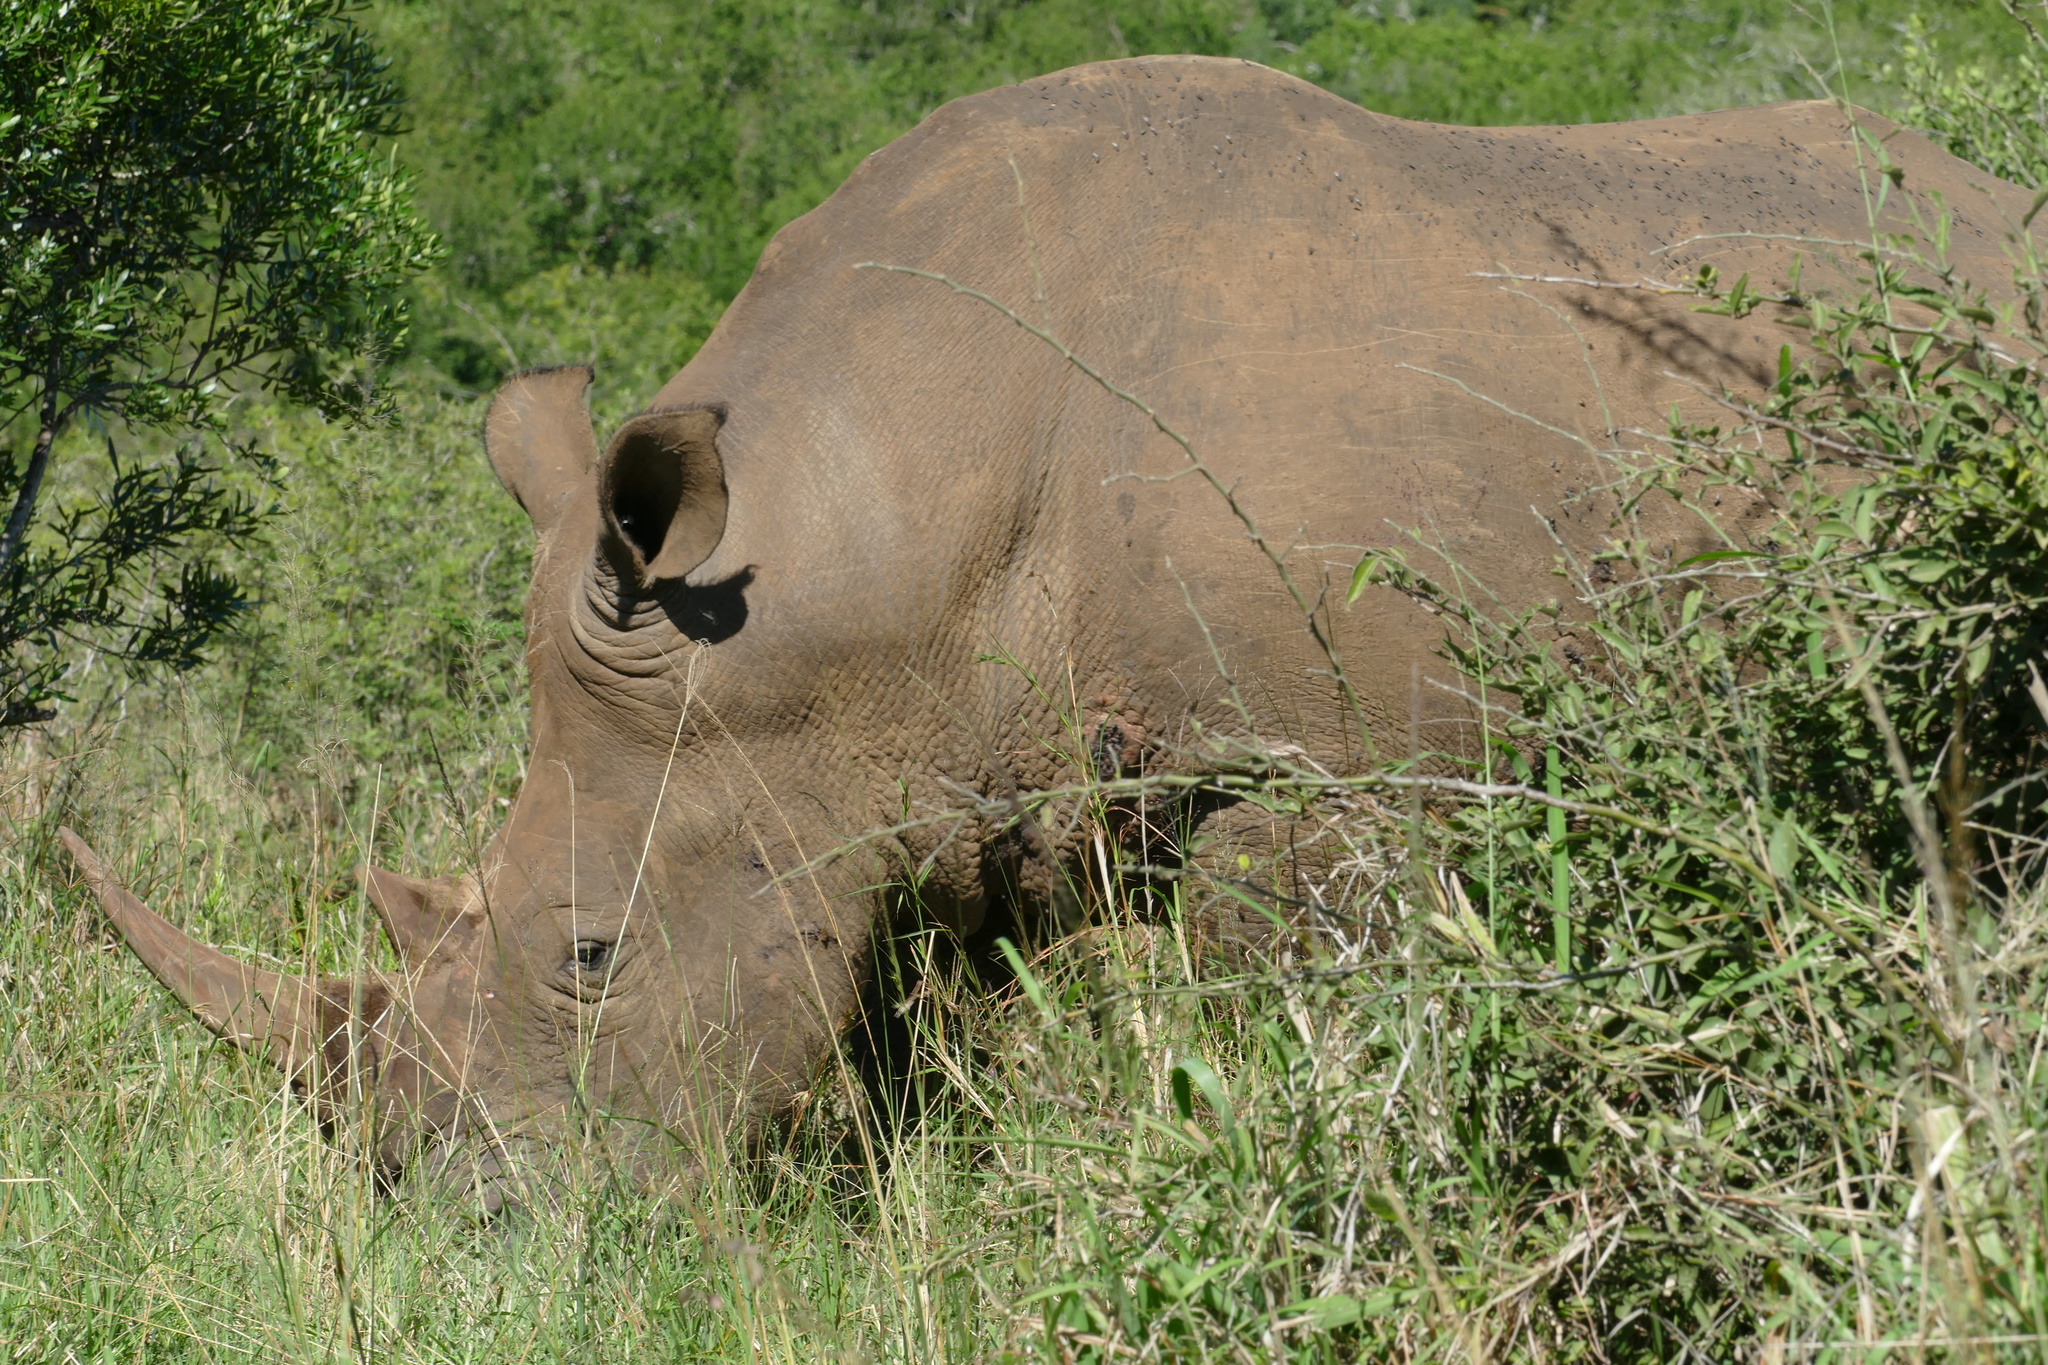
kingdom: Animalia
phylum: Chordata
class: Mammalia
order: Perissodactyla
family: Rhinocerotidae
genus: Ceratotherium
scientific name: Ceratotherium simum
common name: White rhinoceros
